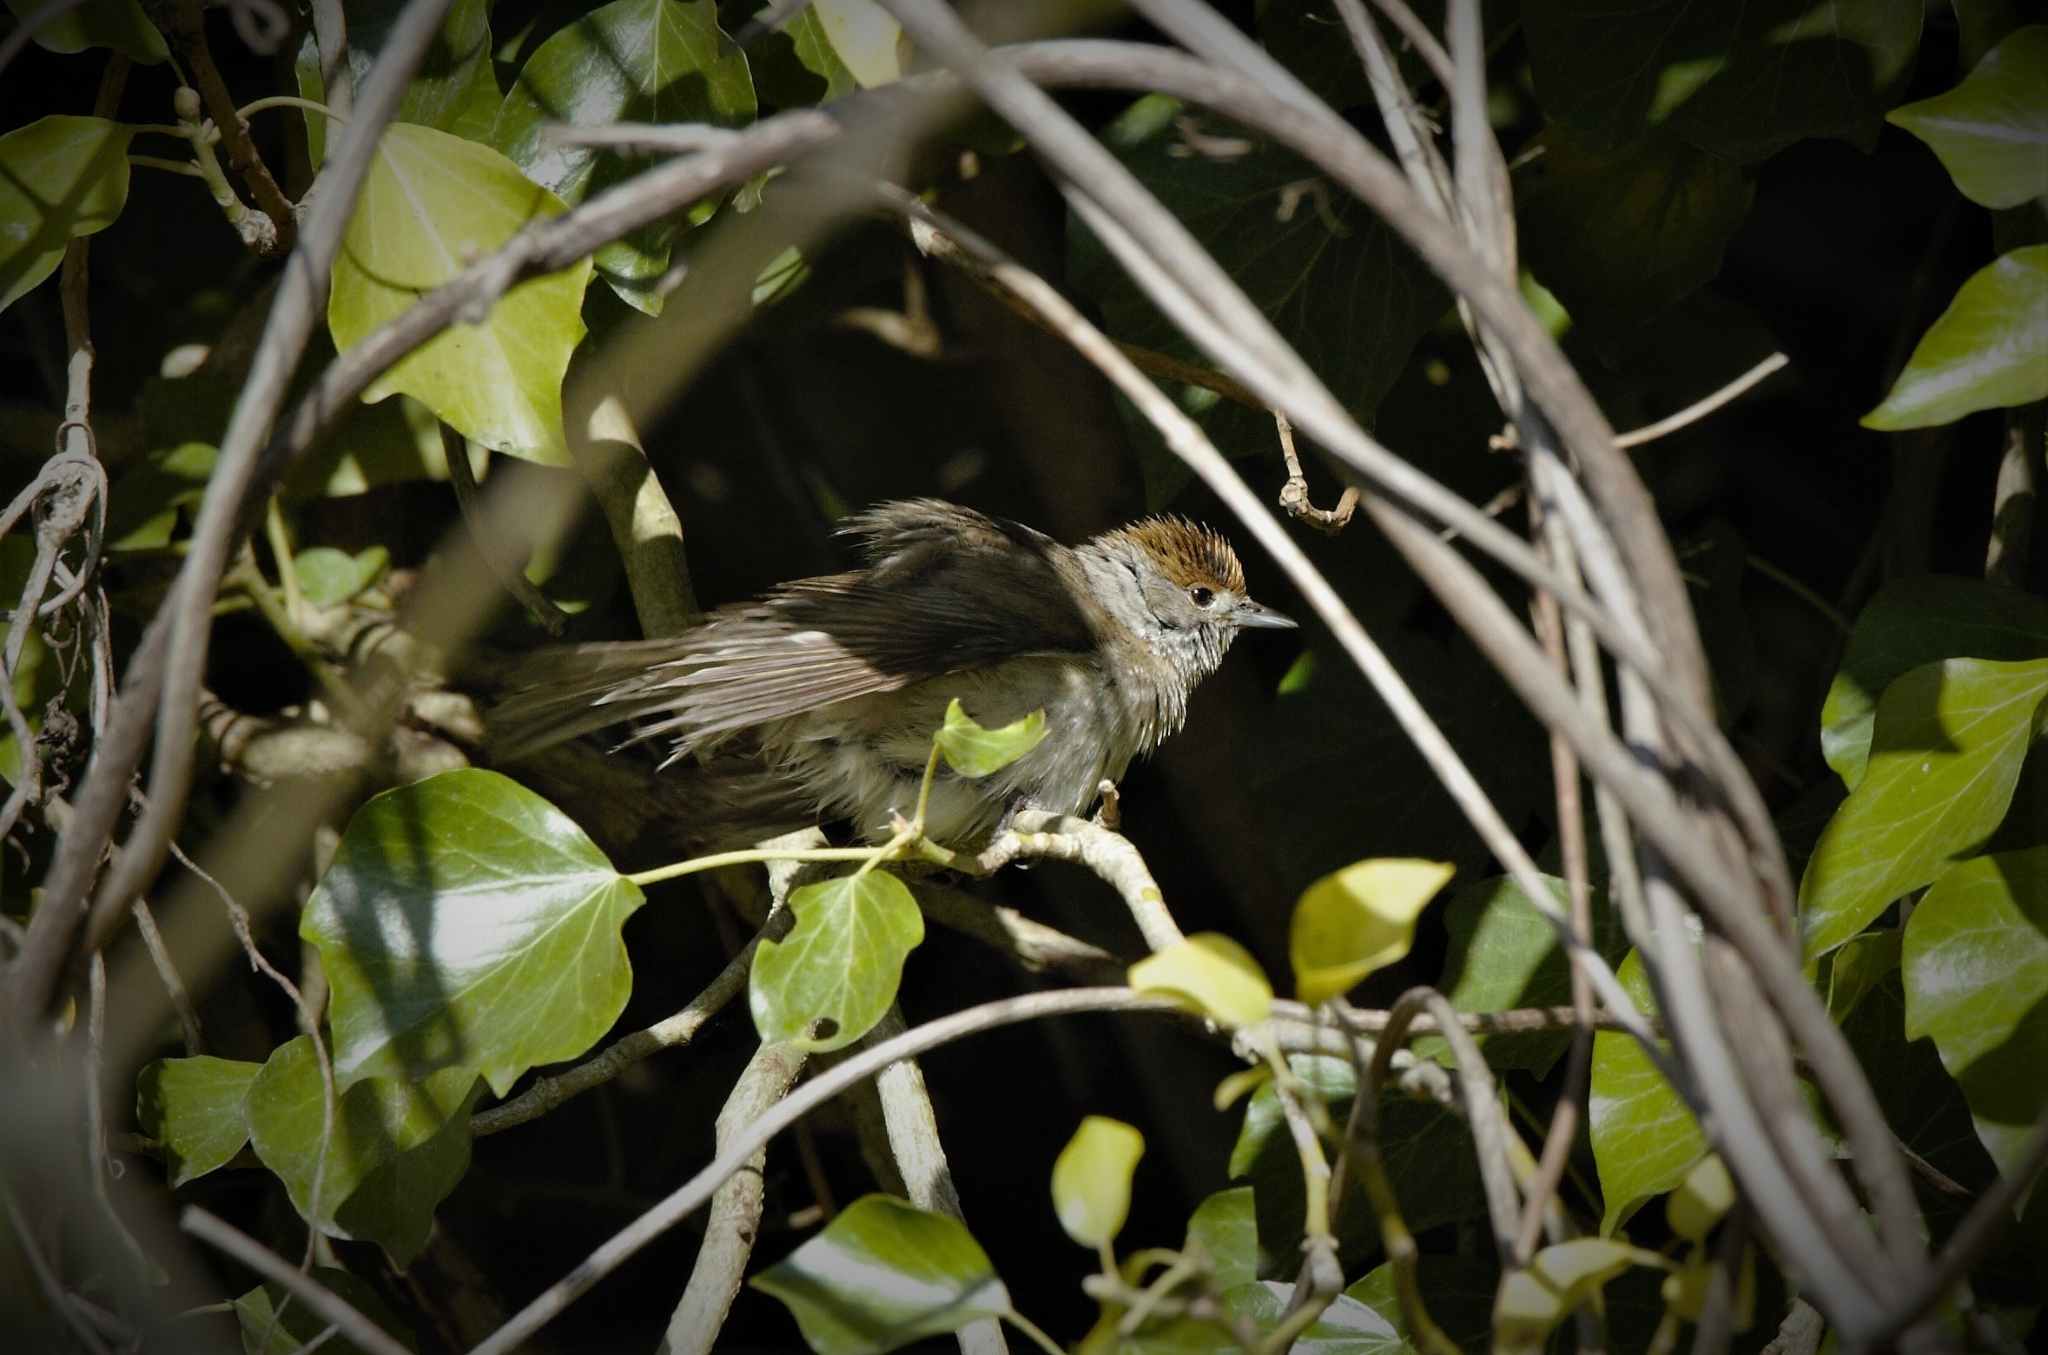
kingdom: Animalia
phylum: Chordata
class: Aves
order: Passeriformes
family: Sylviidae
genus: Sylvia
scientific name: Sylvia atricapilla
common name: Eurasian blackcap
